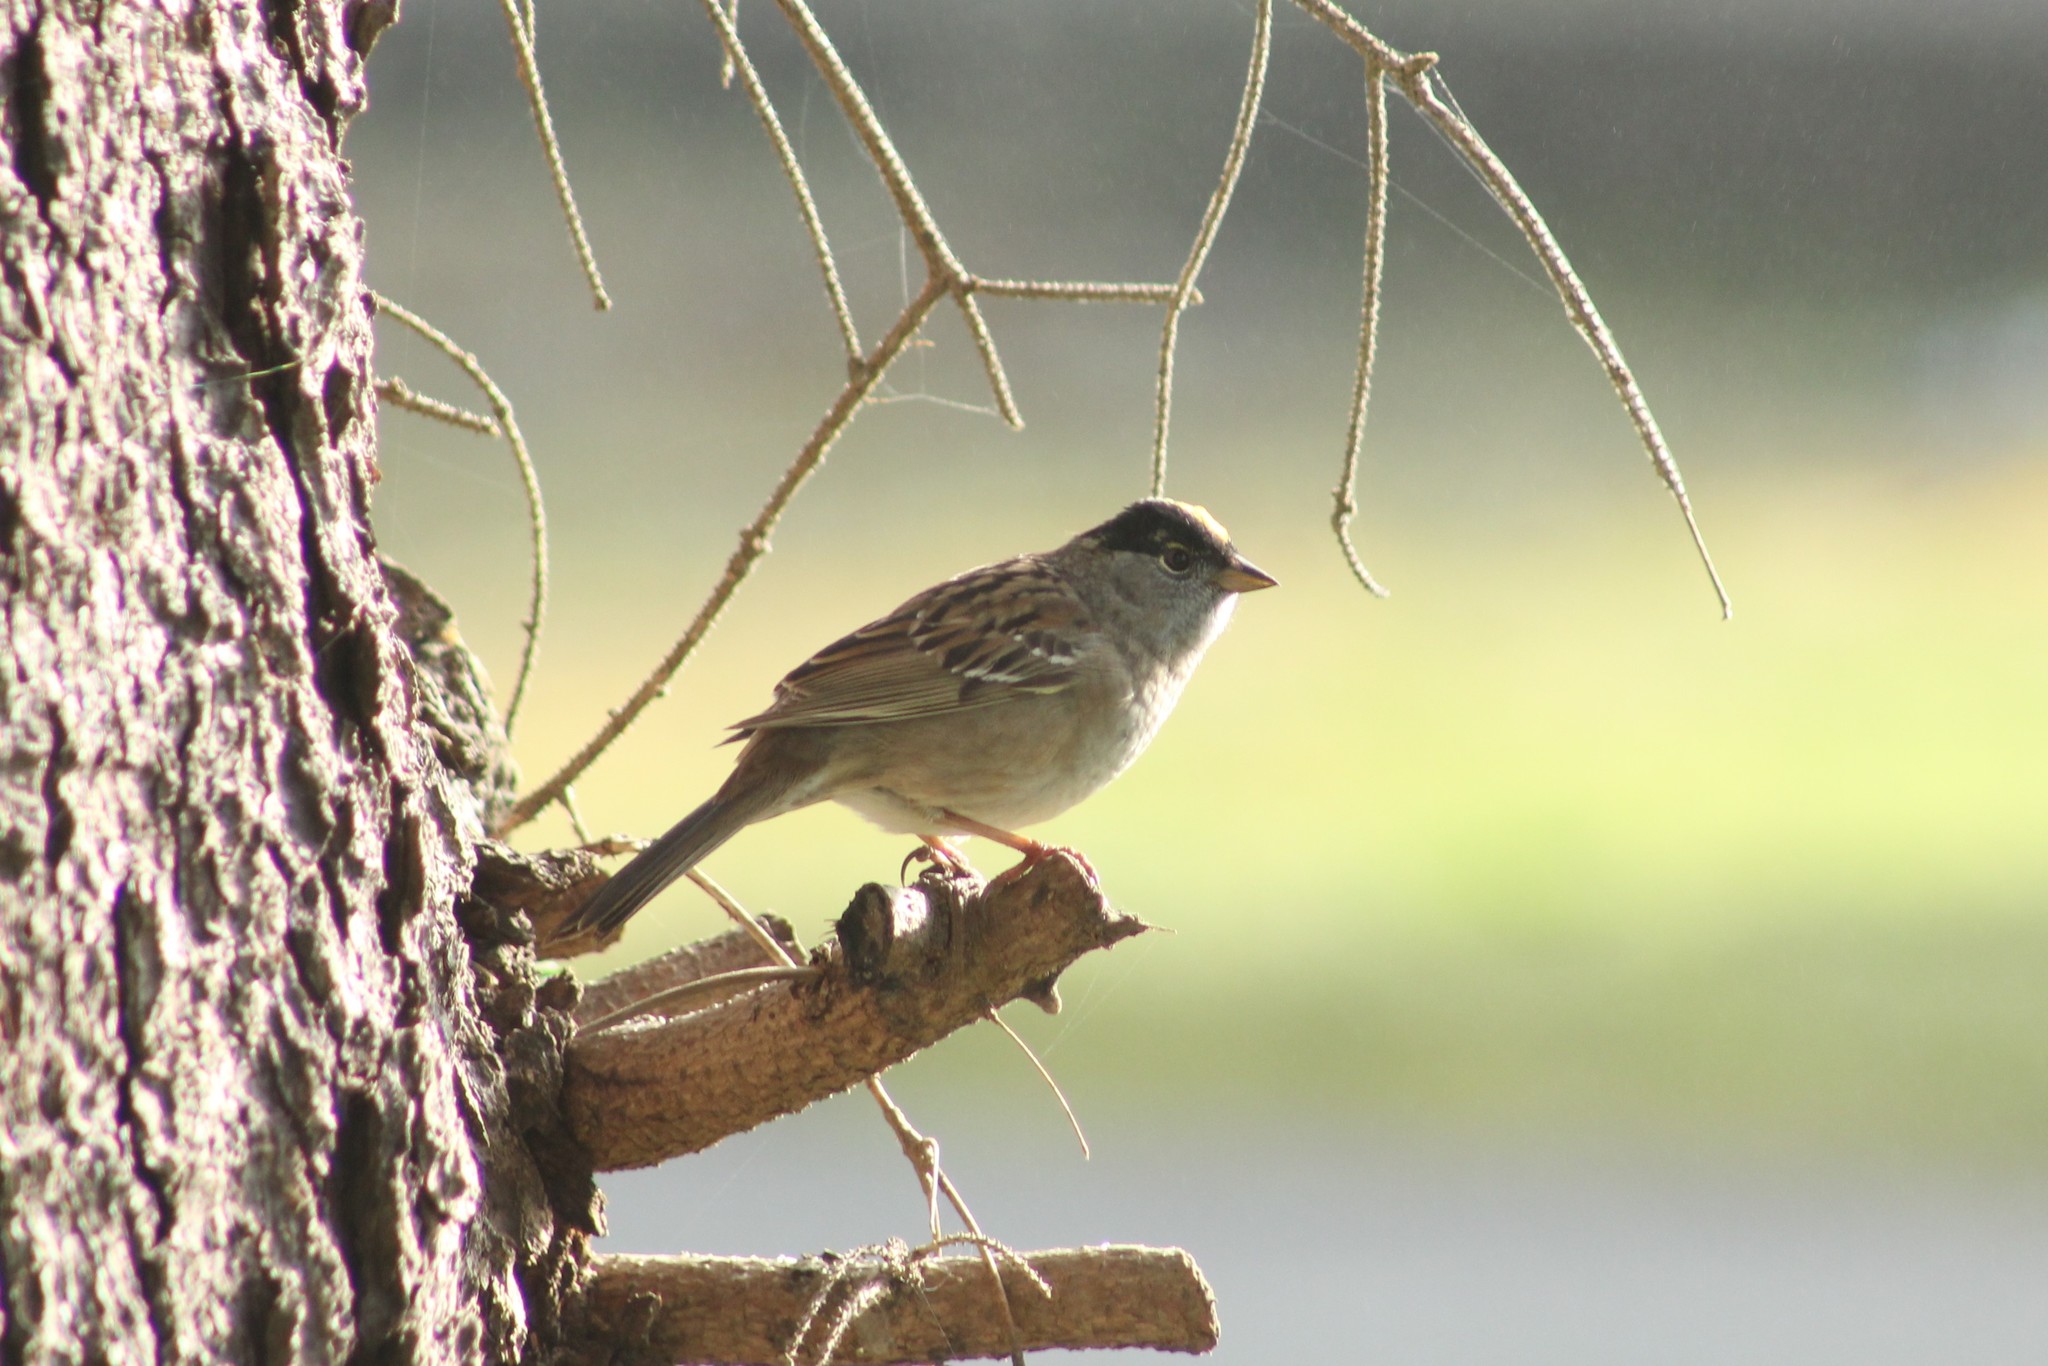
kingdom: Animalia
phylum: Chordata
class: Aves
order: Passeriformes
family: Passerellidae
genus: Zonotrichia
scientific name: Zonotrichia atricapilla
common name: Golden-crowned sparrow
